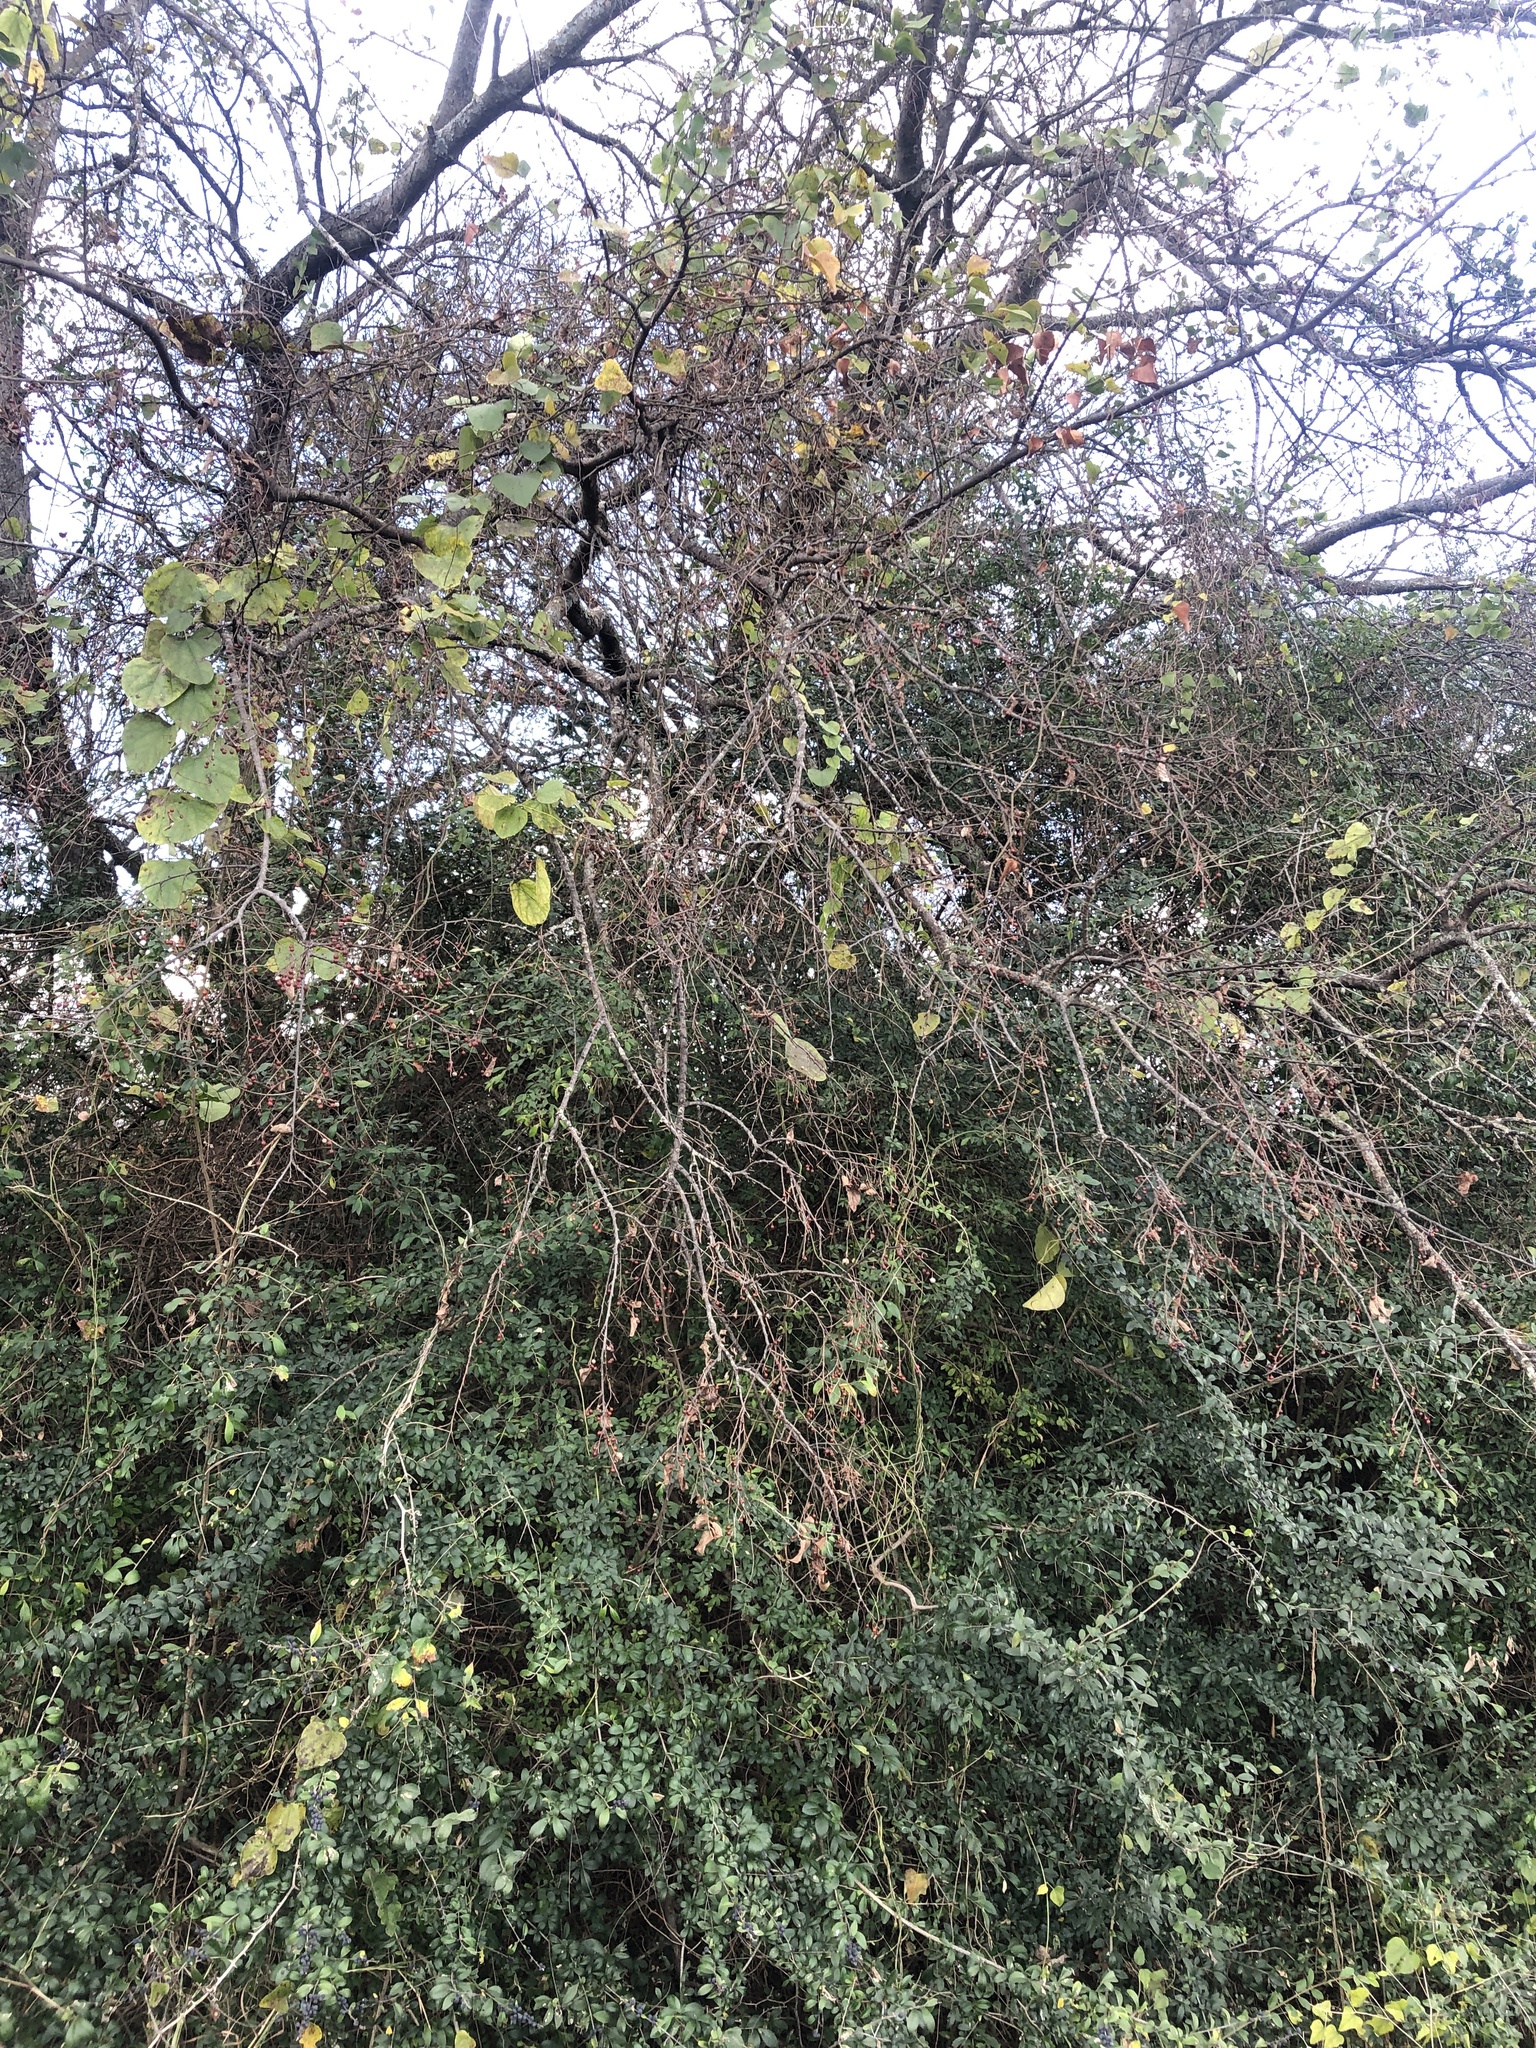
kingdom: Plantae
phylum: Tracheophyta
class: Magnoliopsida
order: Rosales
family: Cannabaceae
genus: Celtis
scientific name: Celtis laevigata
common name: Sugarberry
